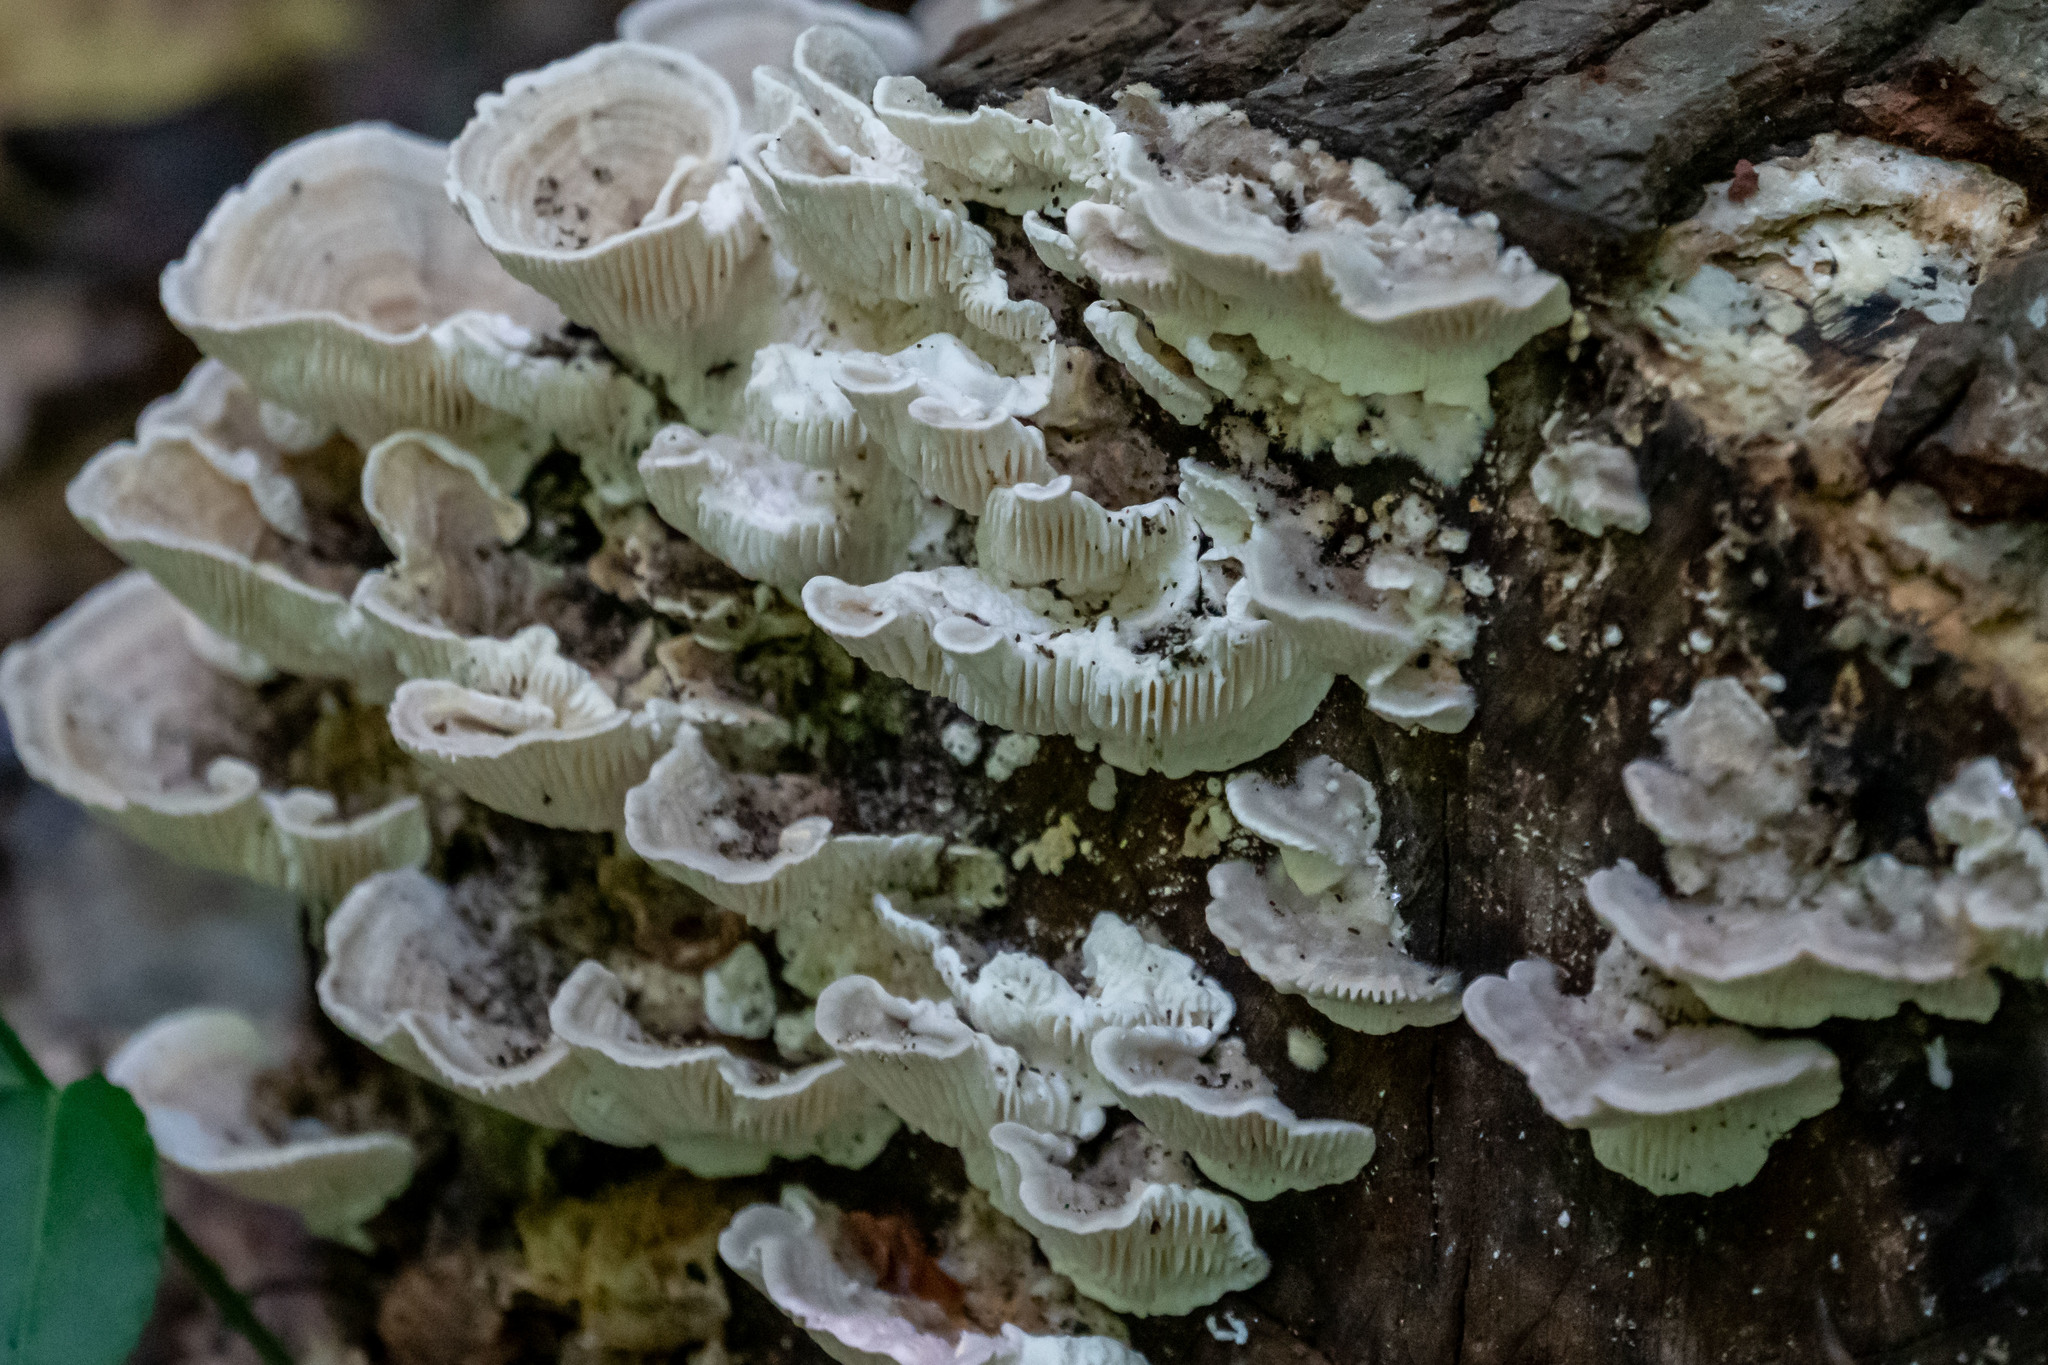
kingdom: Fungi
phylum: Basidiomycota
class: Agaricomycetes
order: Polyporales
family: Polyporaceae
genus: Lenzites
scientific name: Lenzites betulinus
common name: Birch mazegill
